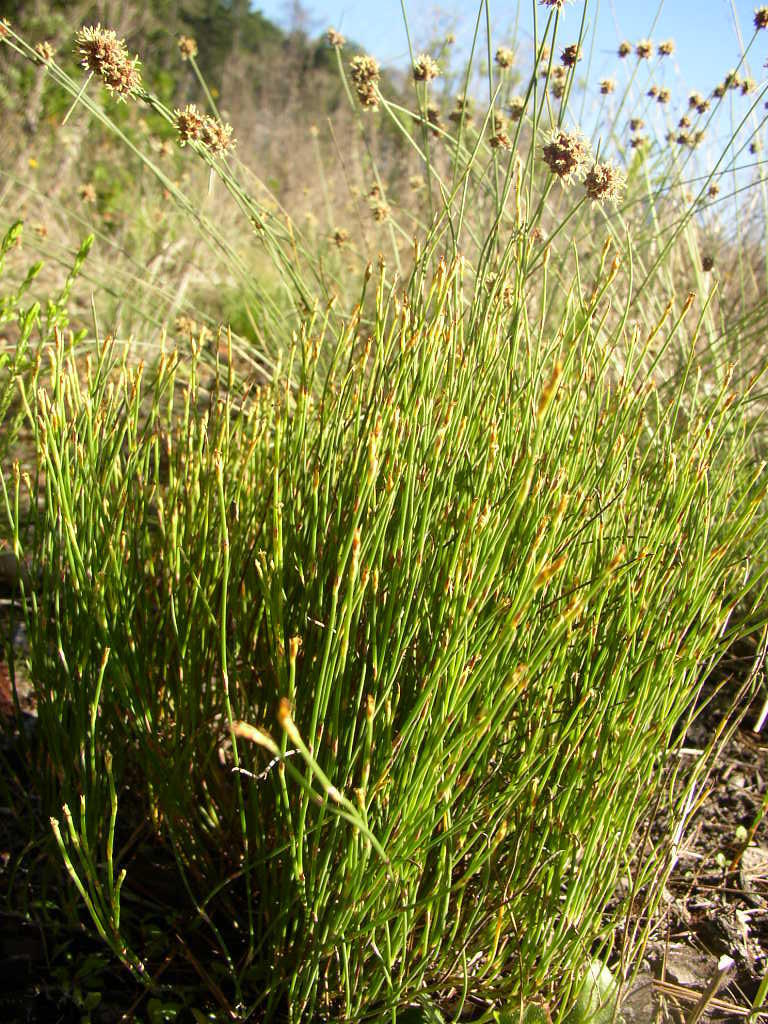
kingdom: Plantae
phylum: Tracheophyta
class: Liliopsida
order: Poales
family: Restionaceae
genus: Mastersiella
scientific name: Mastersiella digitata
